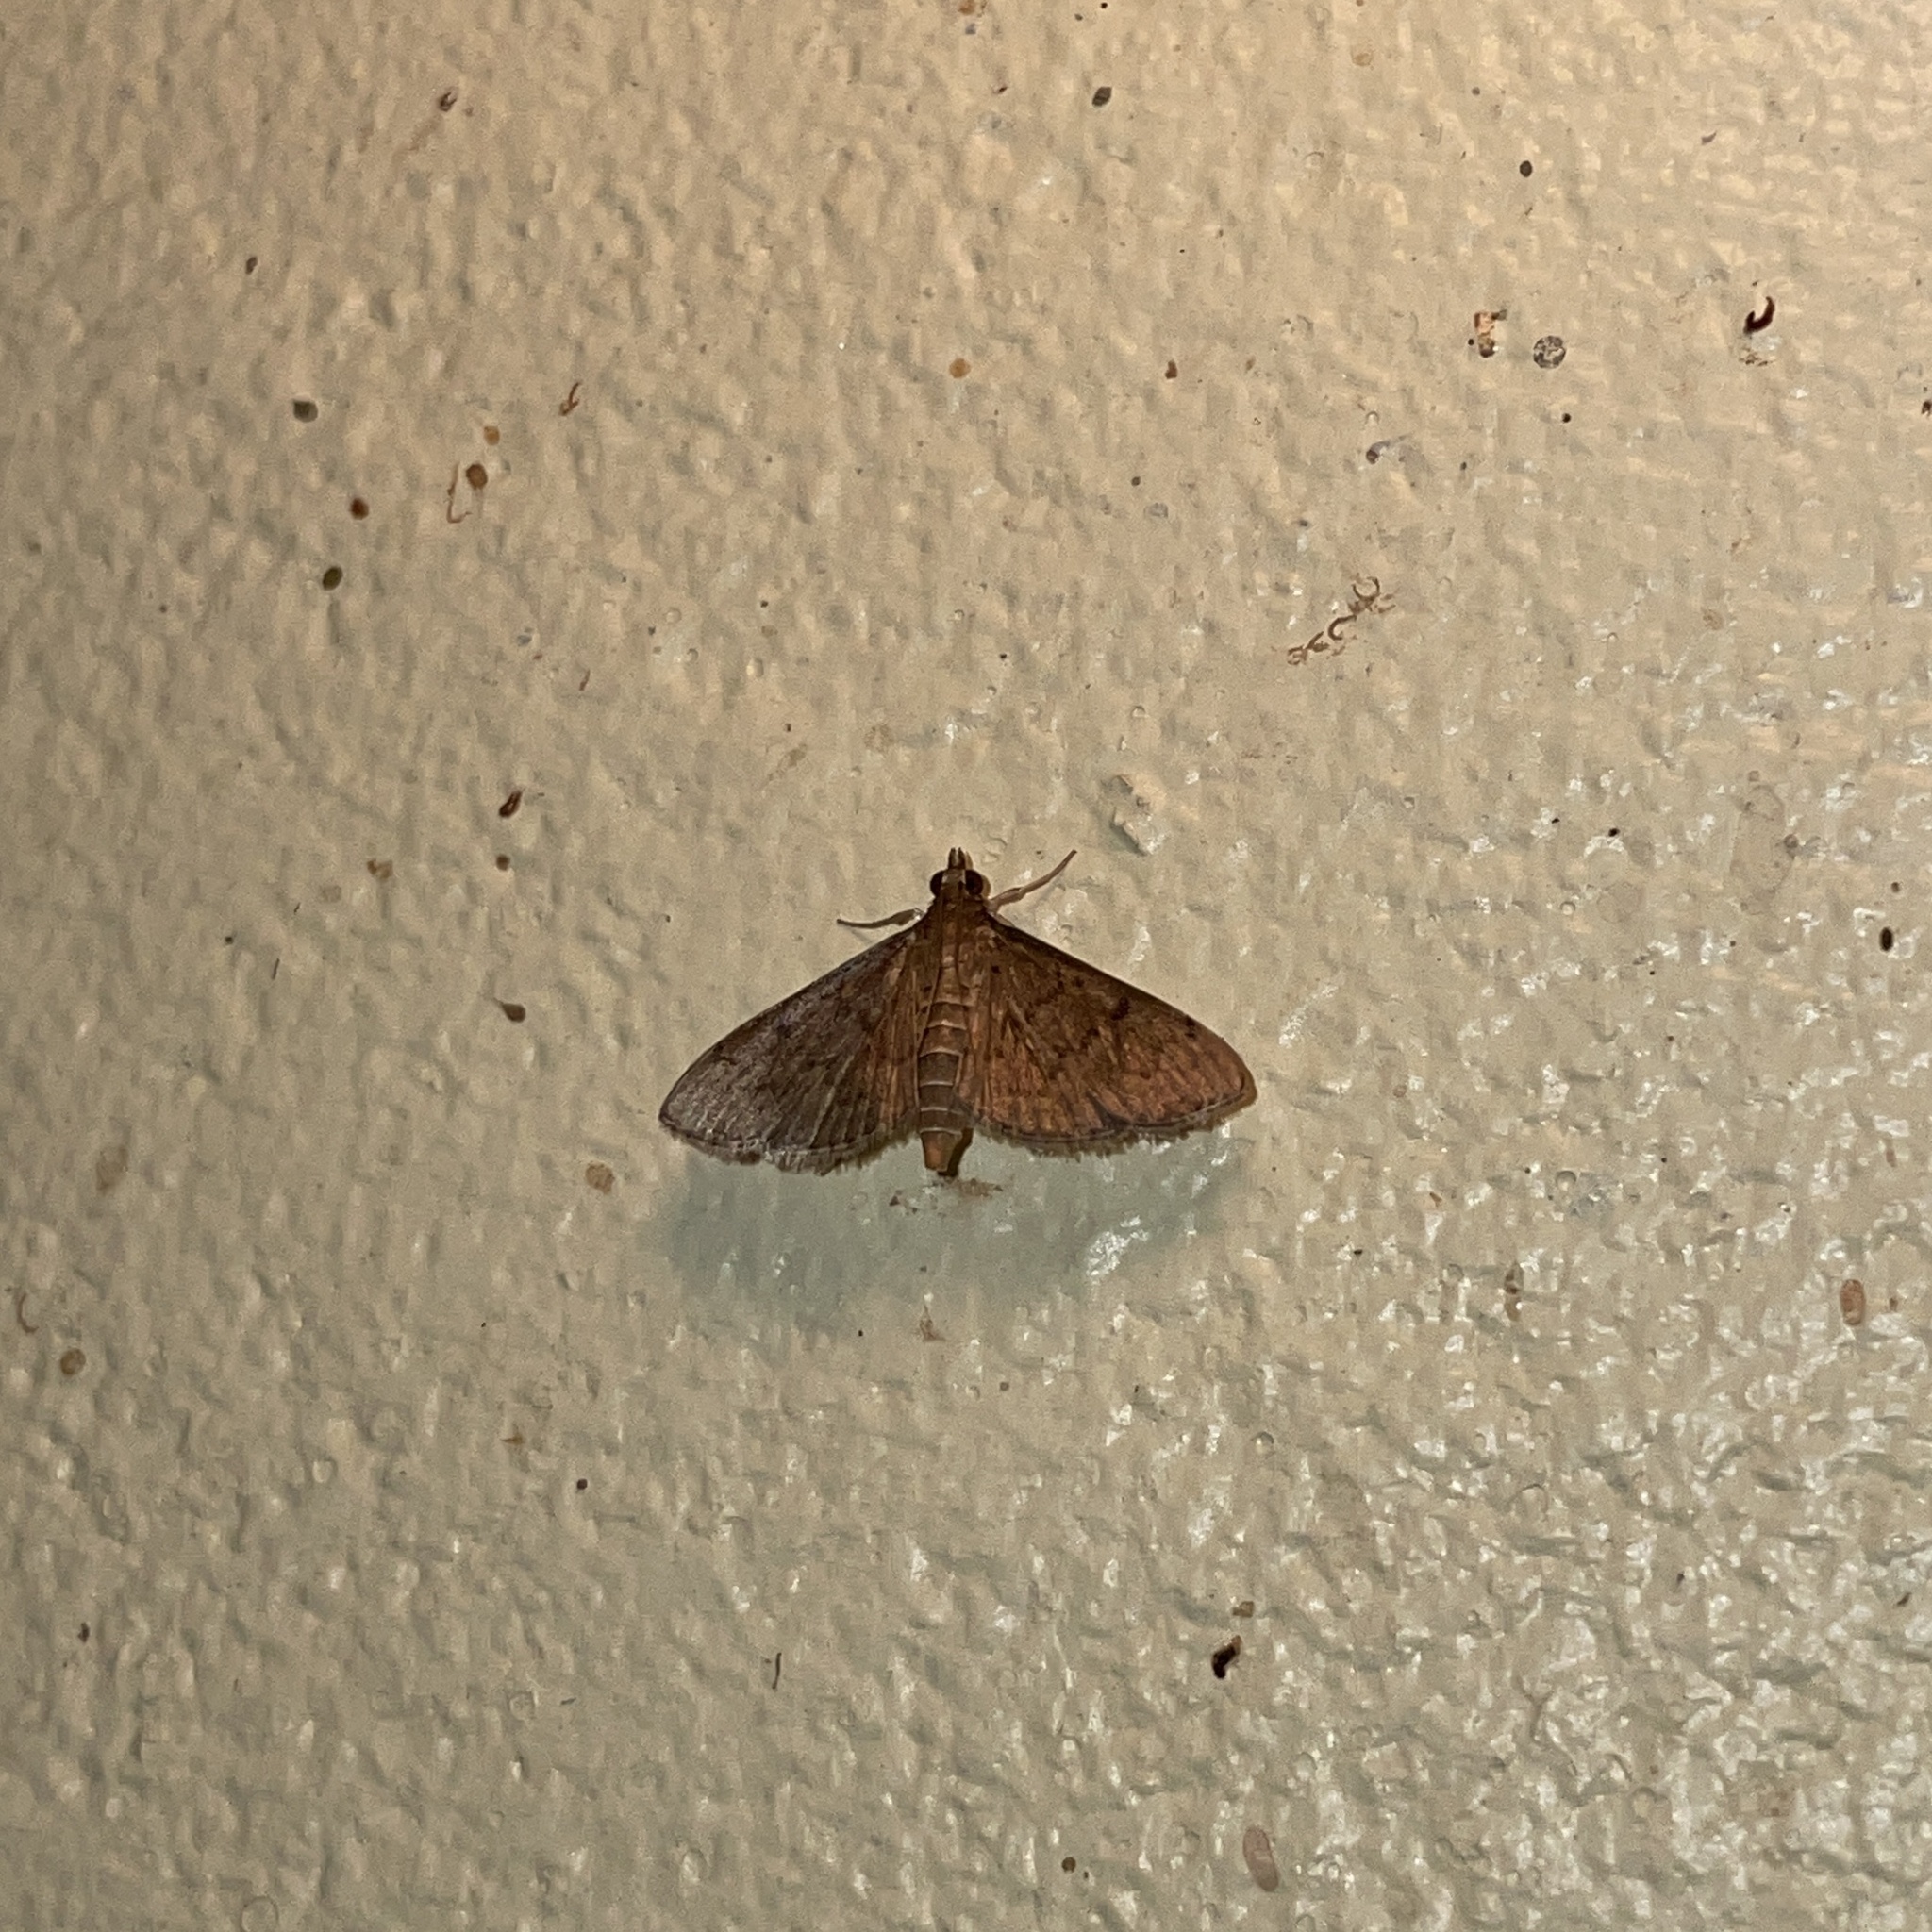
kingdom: Animalia
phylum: Arthropoda
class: Insecta
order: Lepidoptera
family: Crambidae
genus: Herpetogramma
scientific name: Herpetogramma phaeopteralis
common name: Dusky herpetogramma moth
